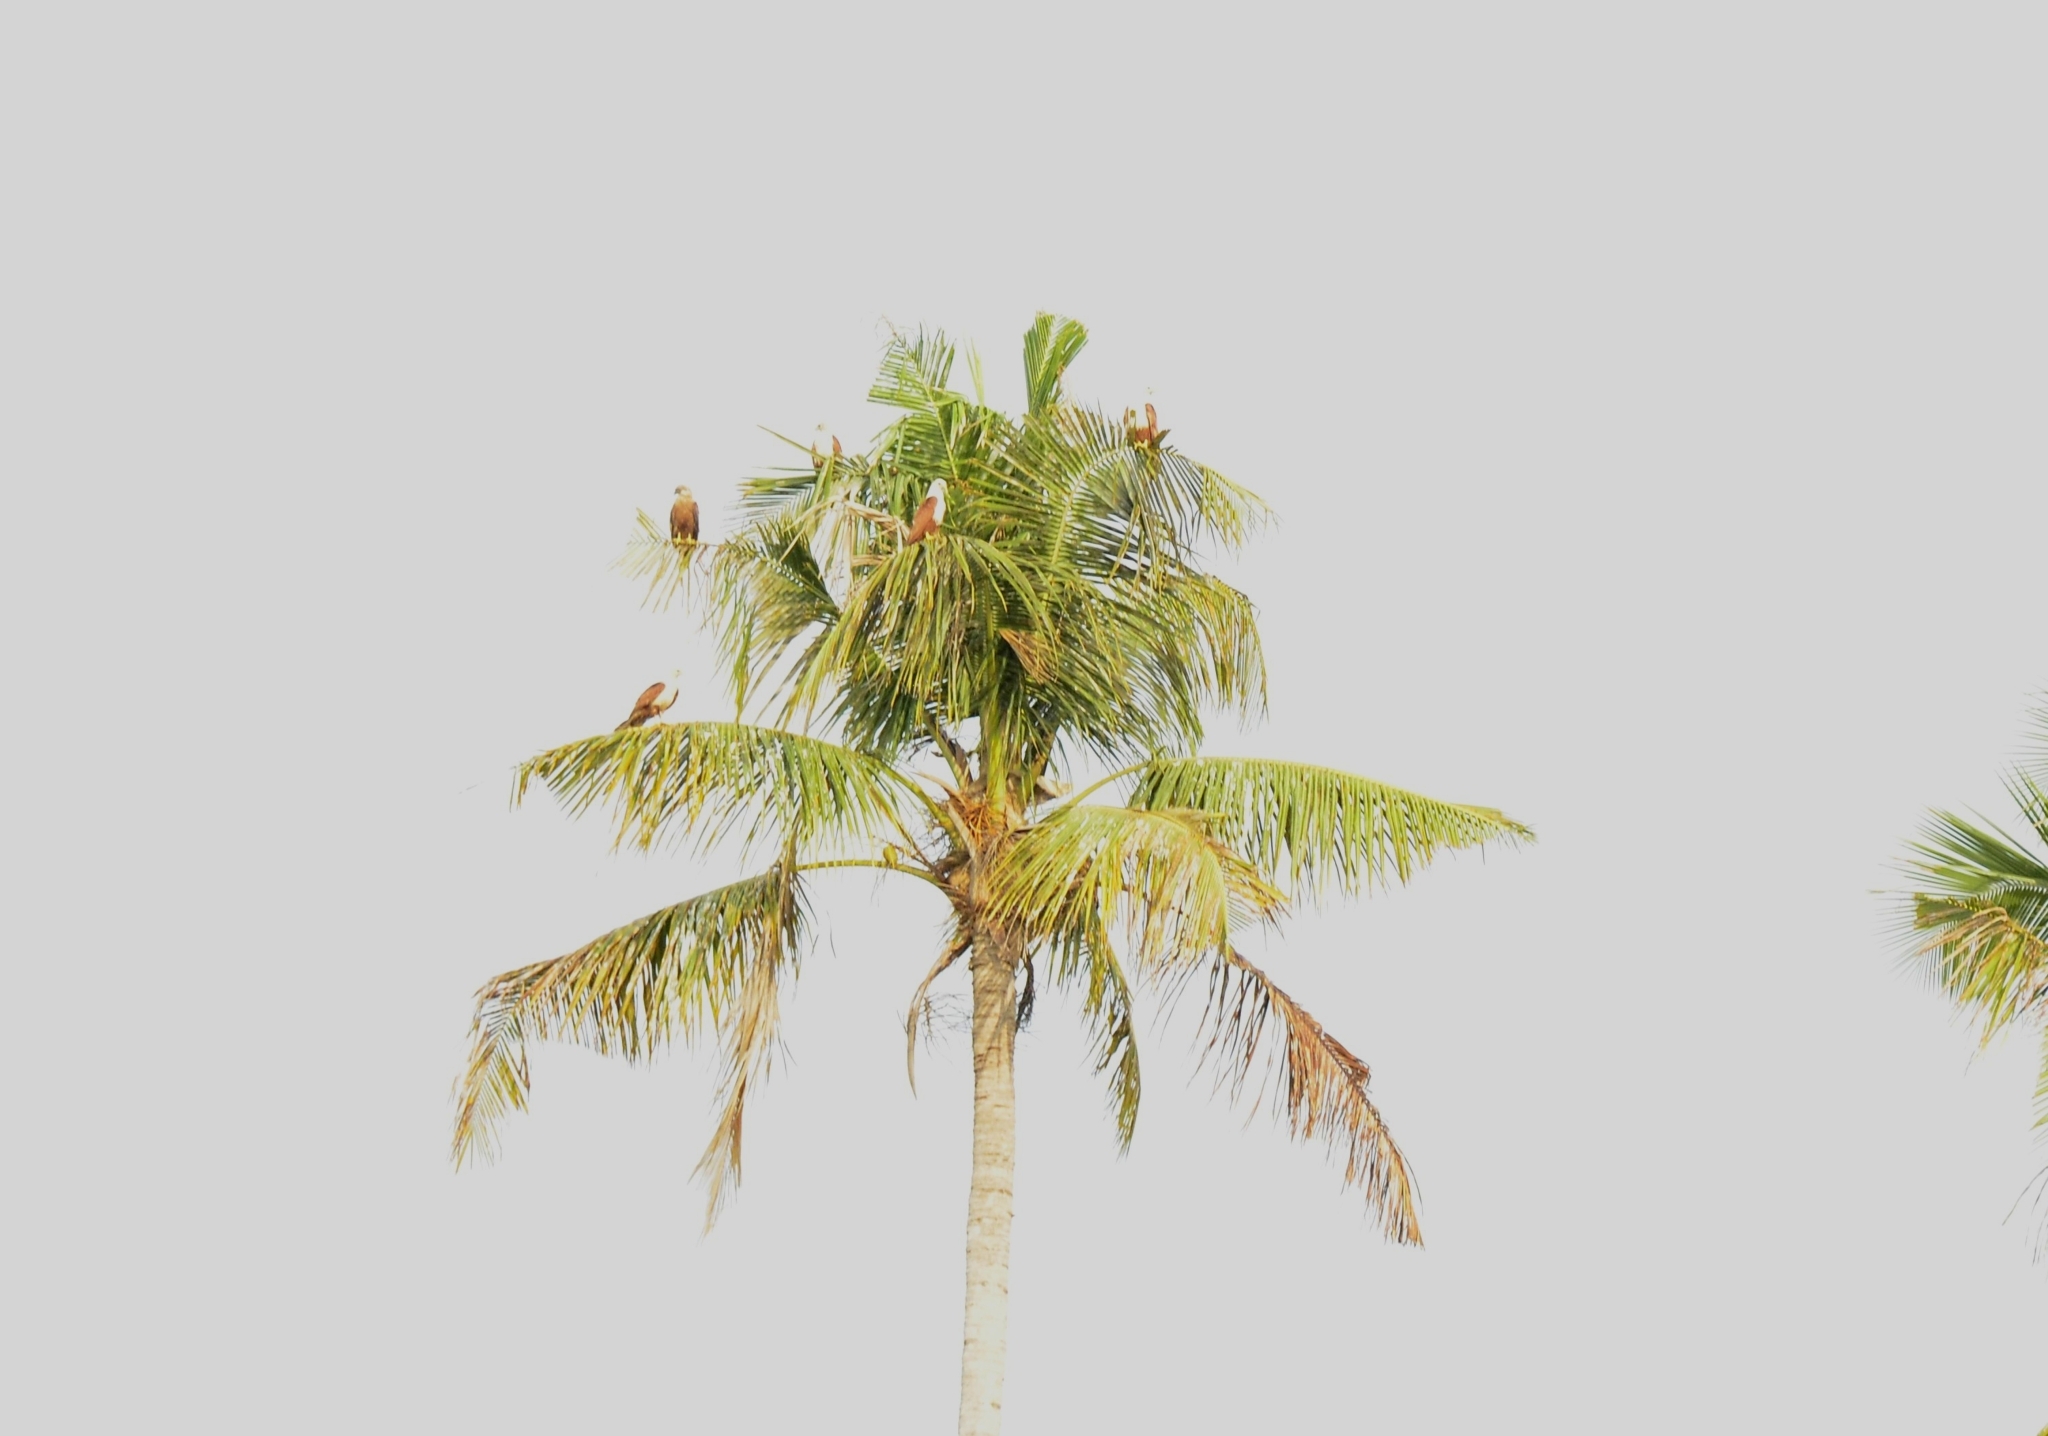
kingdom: Animalia
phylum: Chordata
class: Aves
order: Accipitriformes
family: Accipitridae
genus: Haliastur
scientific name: Haliastur indus
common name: Brahminy kite
